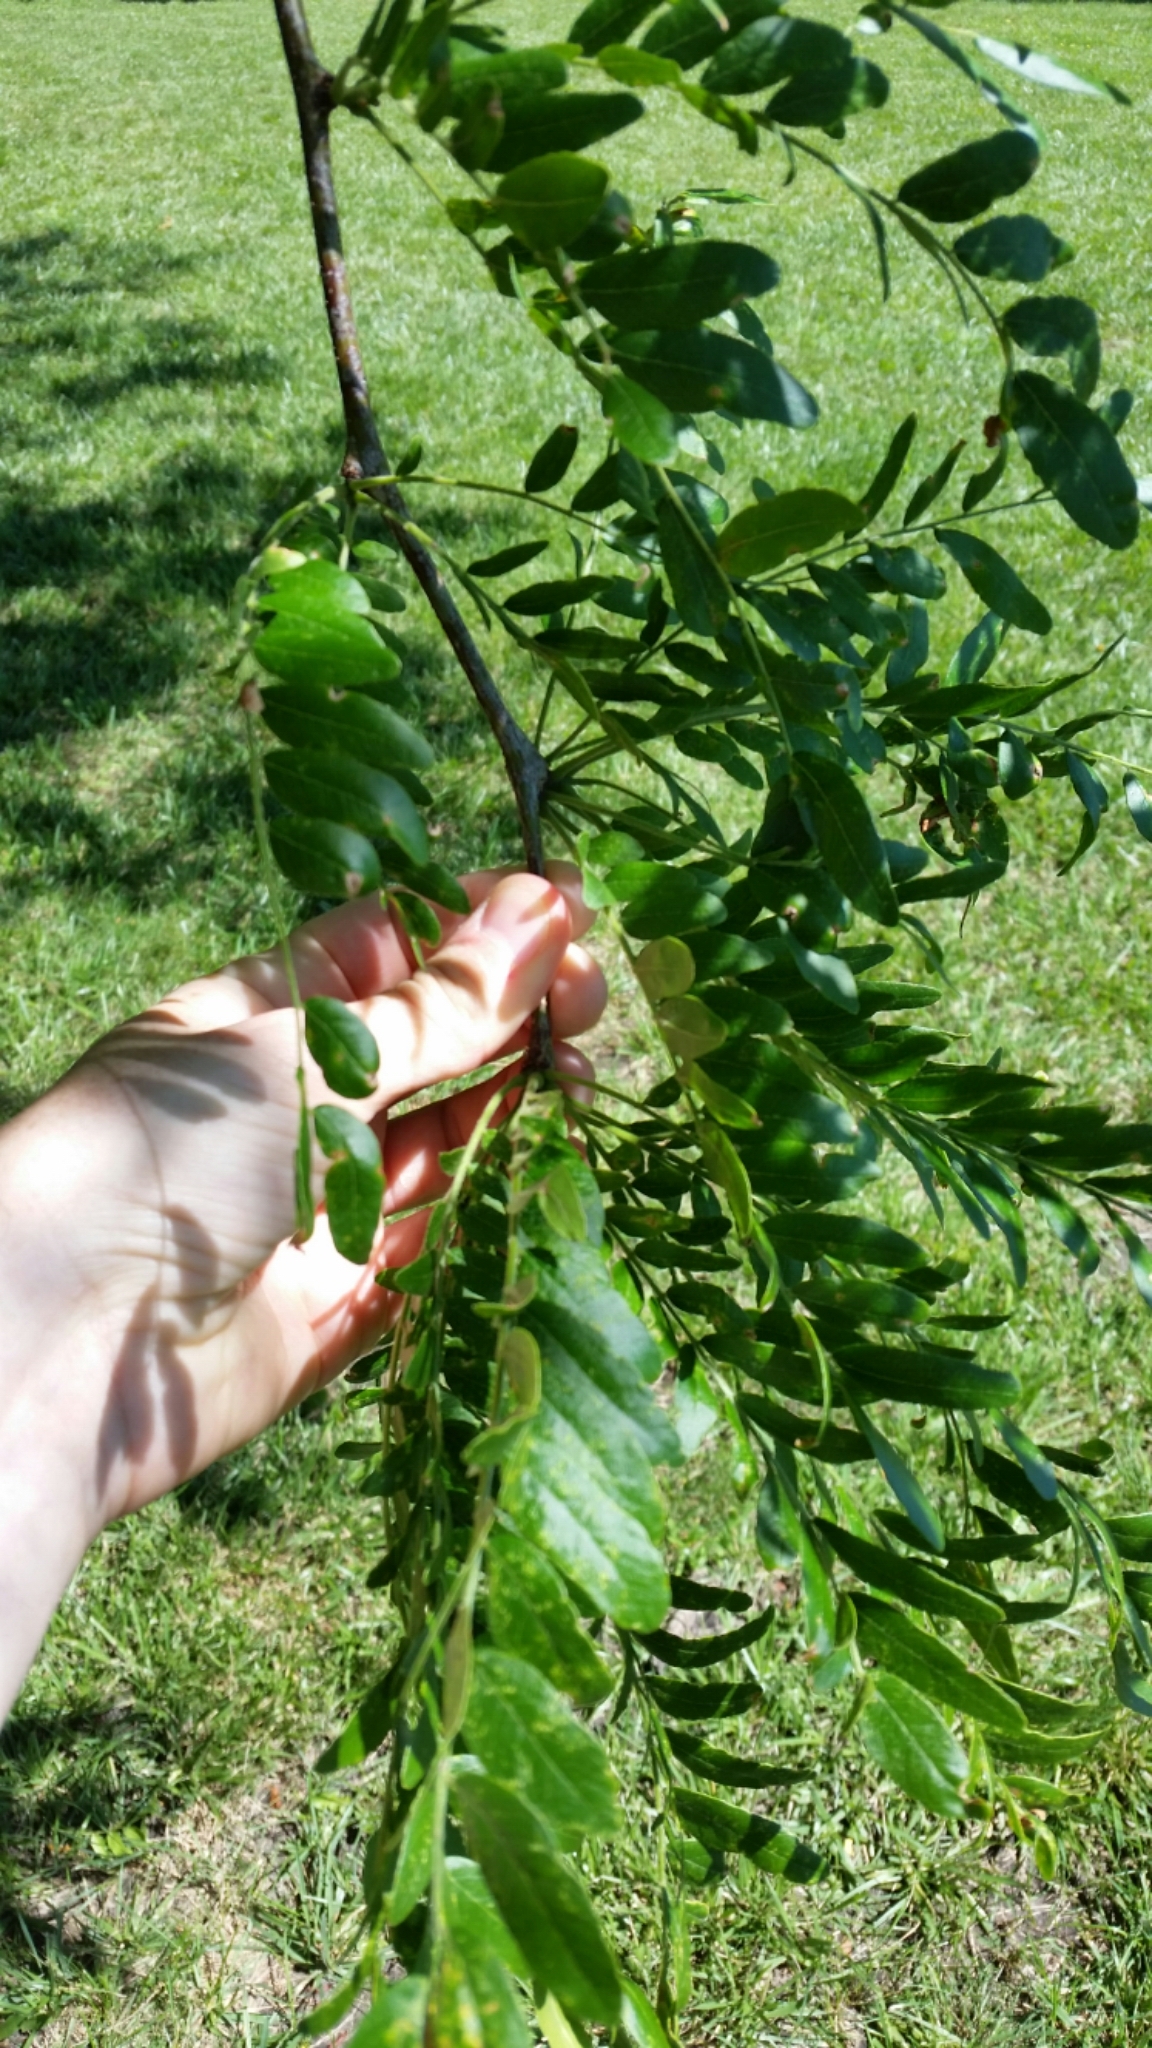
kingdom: Plantae
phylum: Tracheophyta
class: Magnoliopsida
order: Fabales
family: Fabaceae
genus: Gleditsia
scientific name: Gleditsia triacanthos
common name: Common honeylocust
